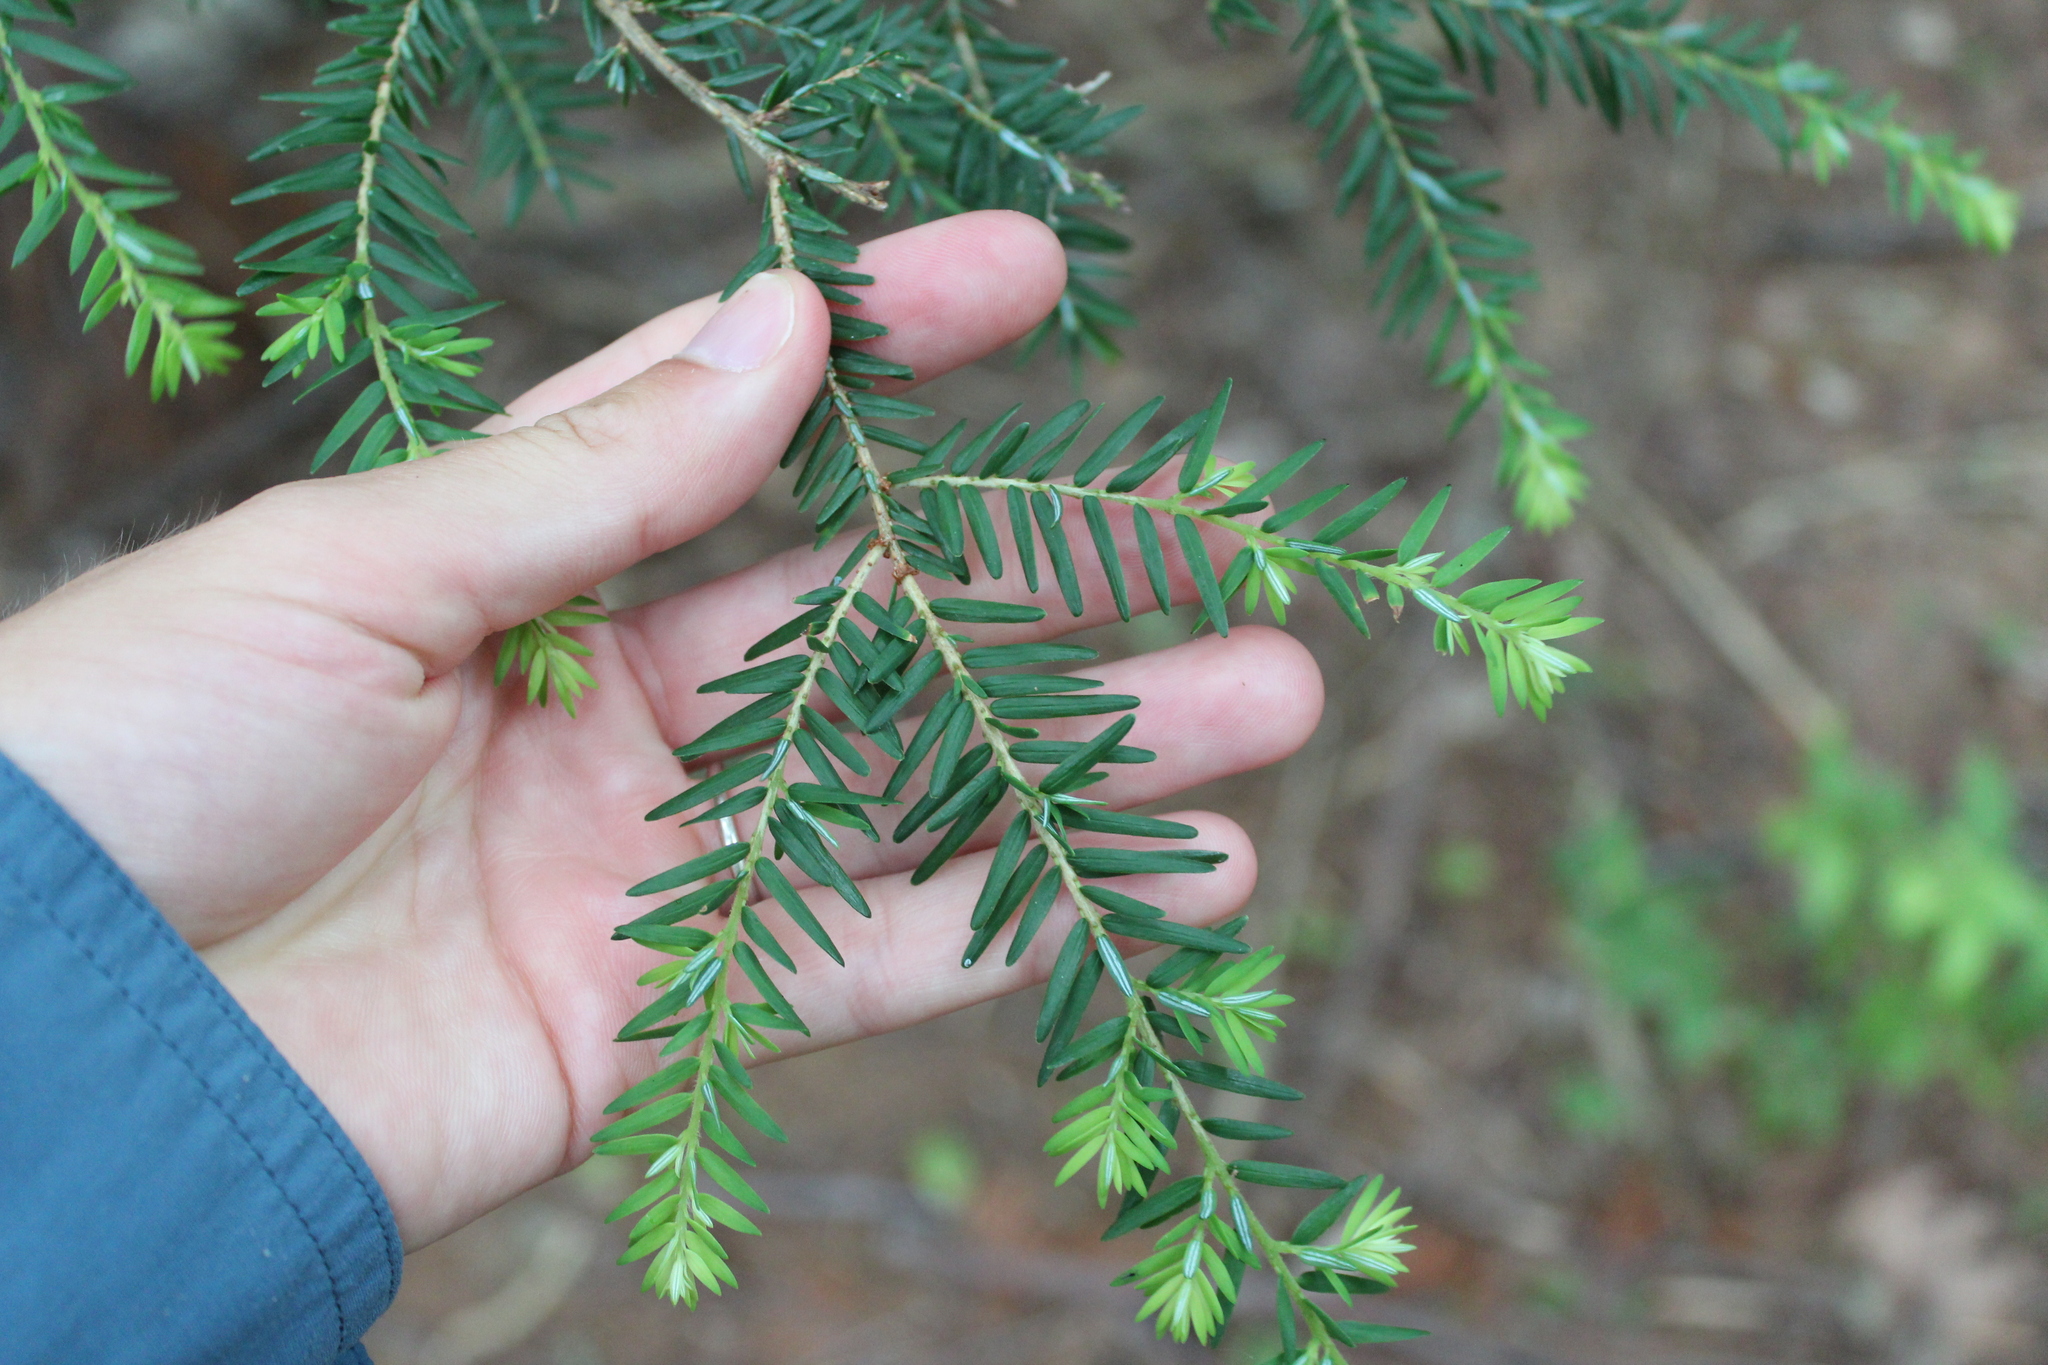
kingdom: Plantae
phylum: Tracheophyta
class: Pinopsida
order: Pinales
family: Pinaceae
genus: Tsuga
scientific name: Tsuga canadensis
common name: Eastern hemlock
